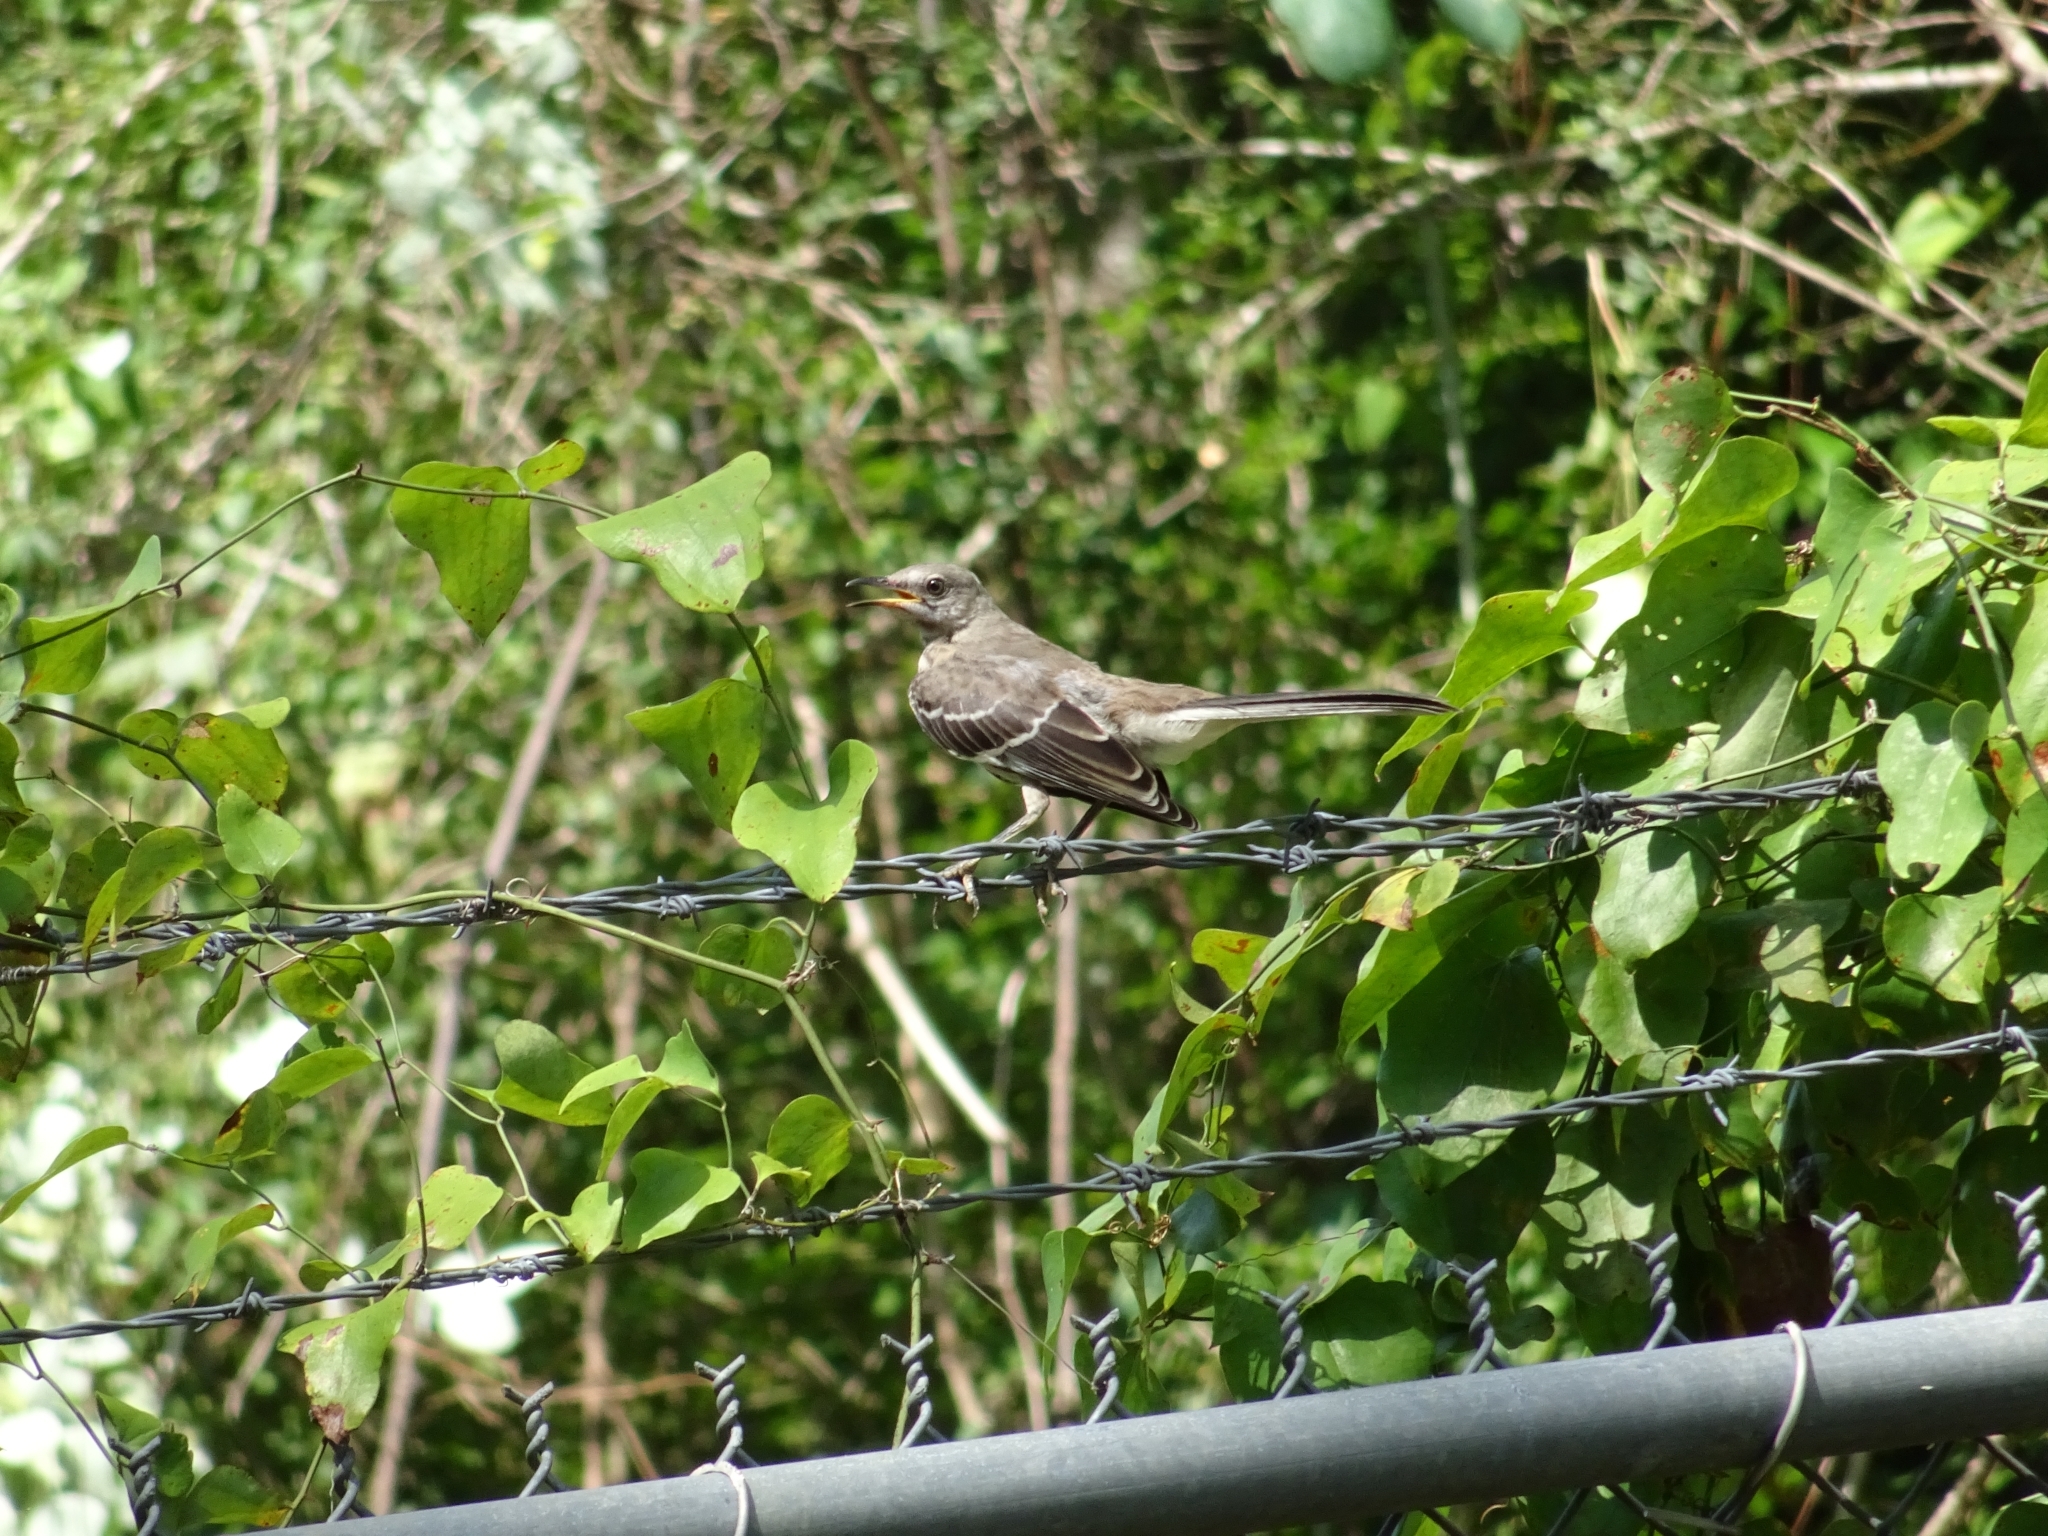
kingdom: Animalia
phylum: Chordata
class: Aves
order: Passeriformes
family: Mimidae
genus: Mimus
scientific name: Mimus polyglottos
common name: Northern mockingbird
